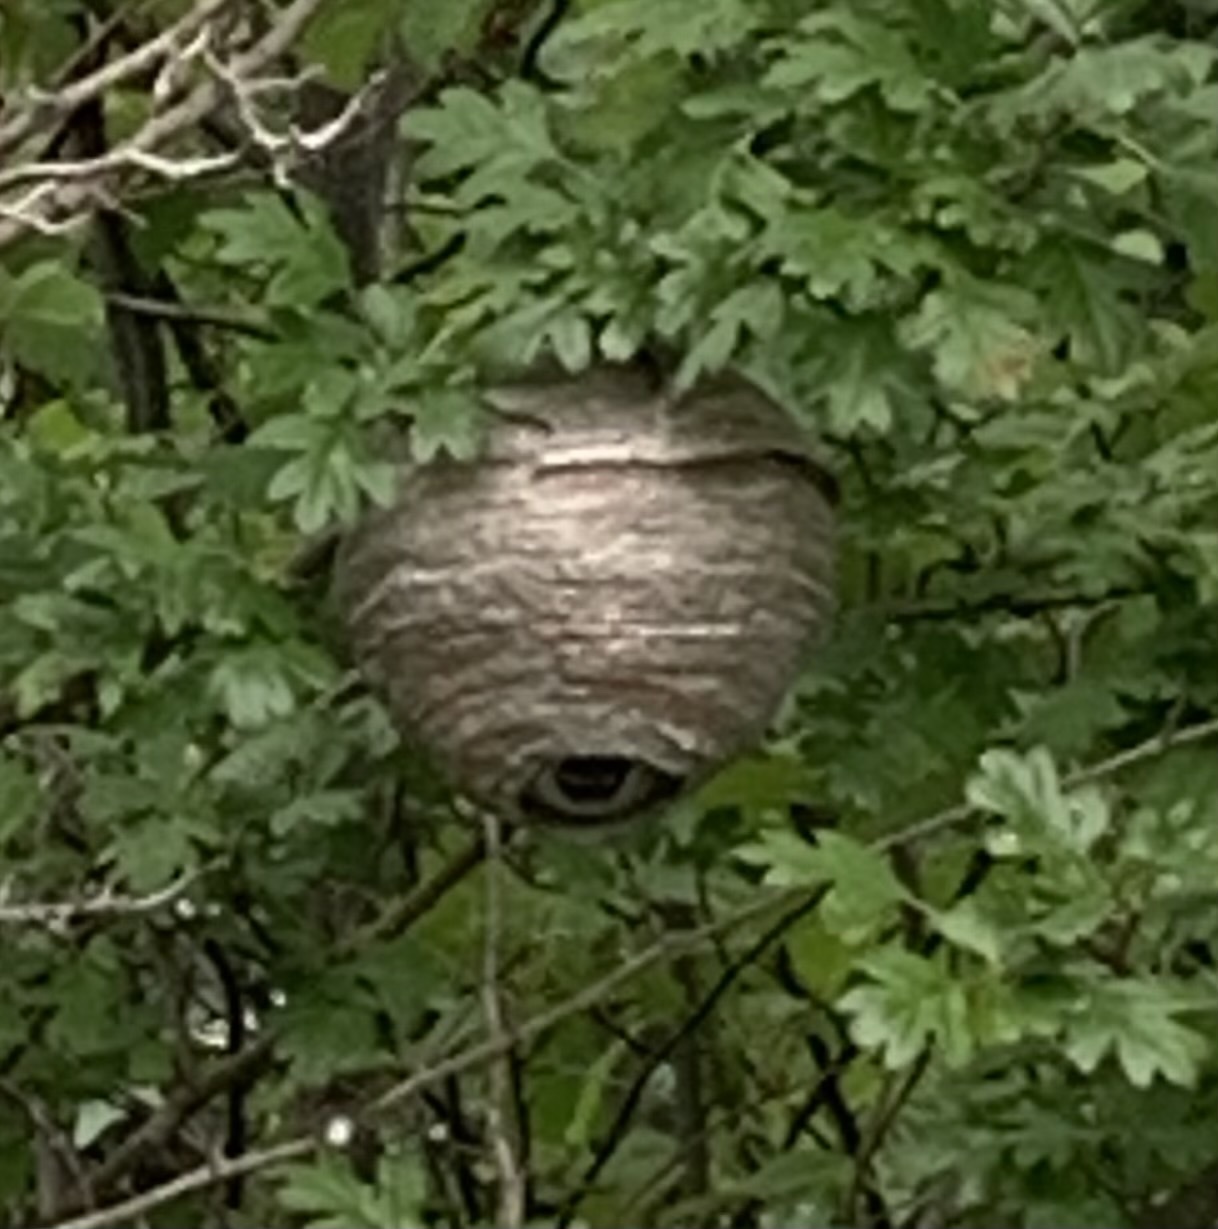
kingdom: Animalia
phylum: Arthropoda
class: Insecta
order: Hymenoptera
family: Vespidae
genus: Dolichovespula
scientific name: Dolichovespula
